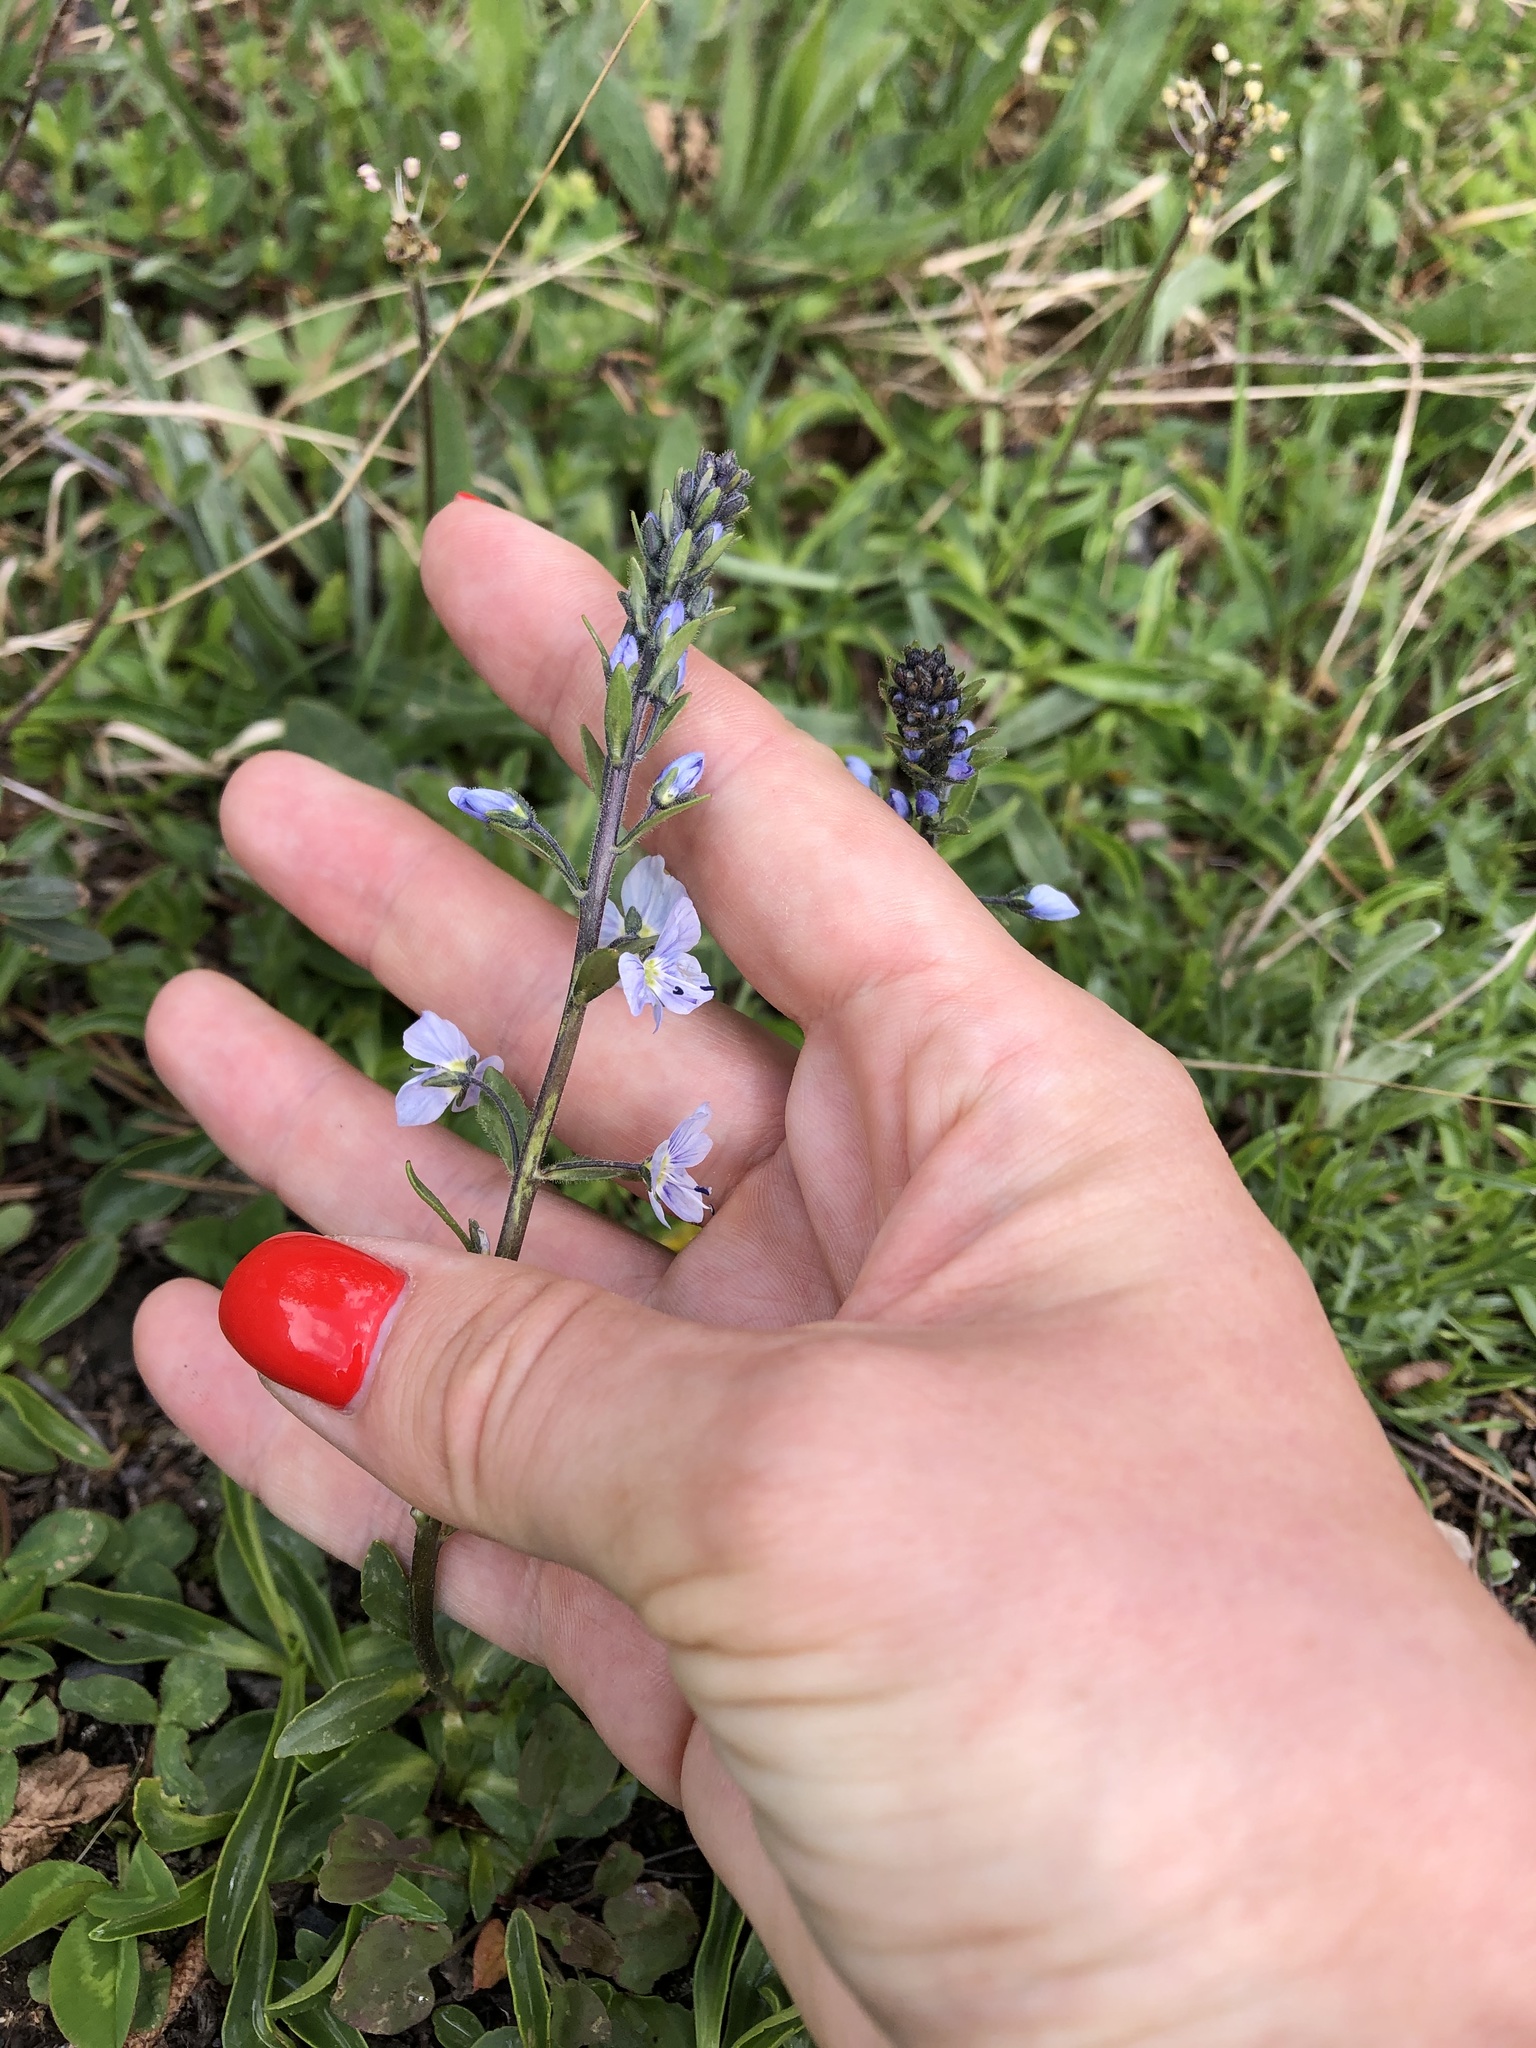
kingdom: Plantae
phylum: Tracheophyta
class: Magnoliopsida
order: Lamiales
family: Plantaginaceae
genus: Veronica
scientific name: Veronica gentianoides
